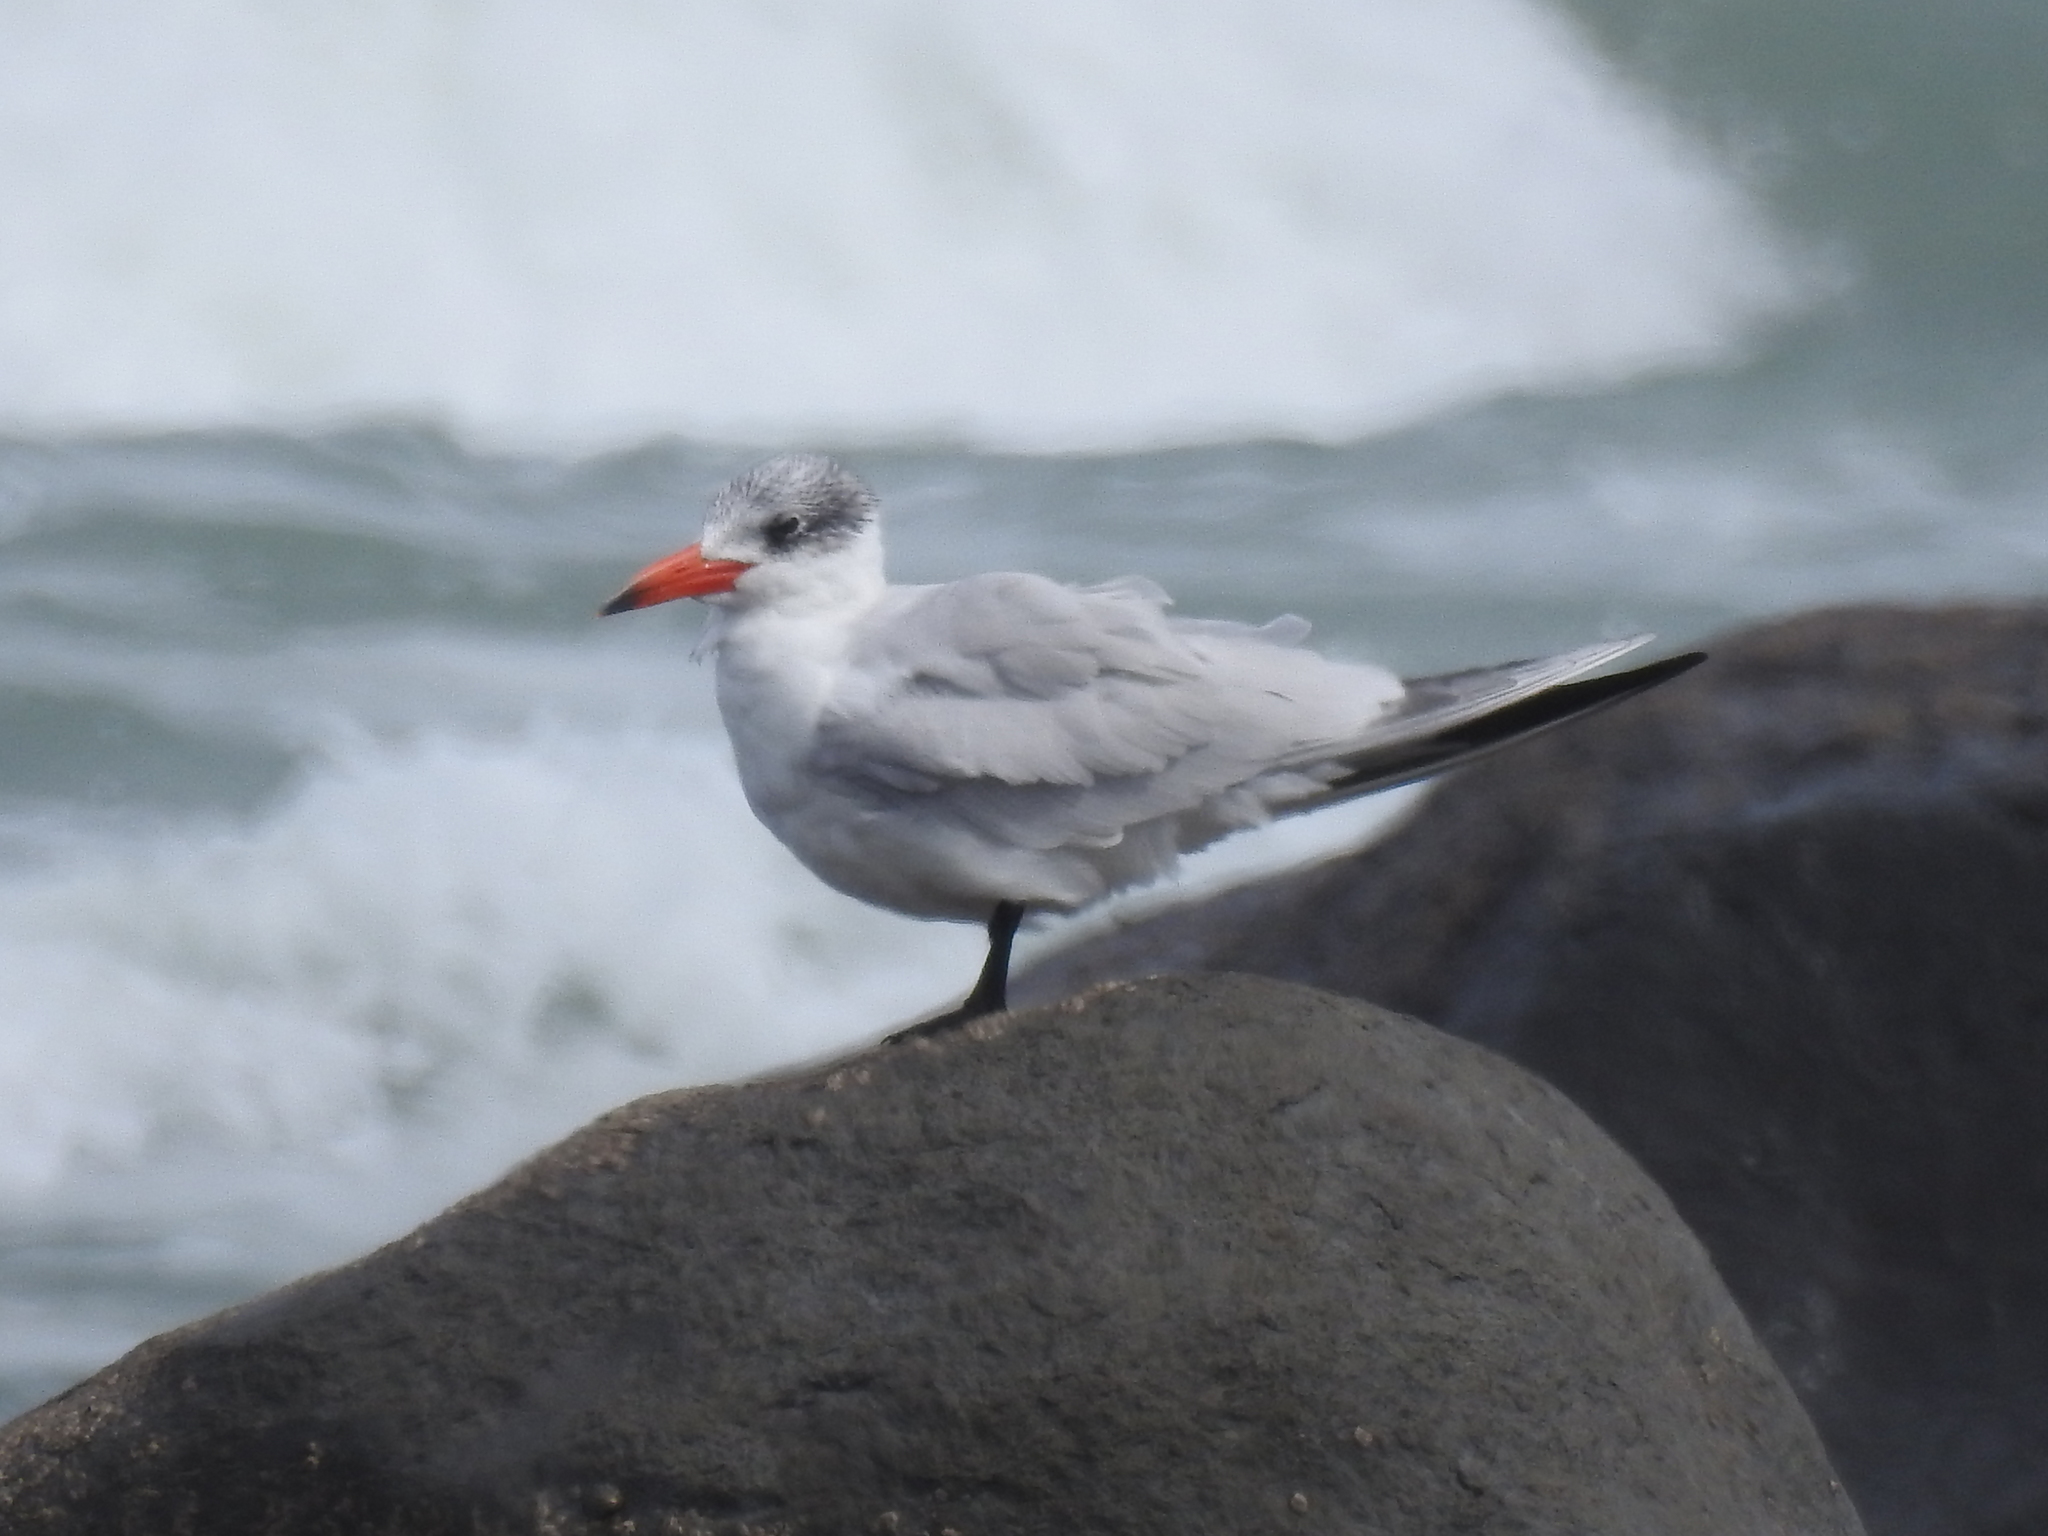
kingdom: Animalia
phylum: Chordata
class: Aves
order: Charadriiformes
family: Laridae
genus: Hydroprogne
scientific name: Hydroprogne caspia
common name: Caspian tern
